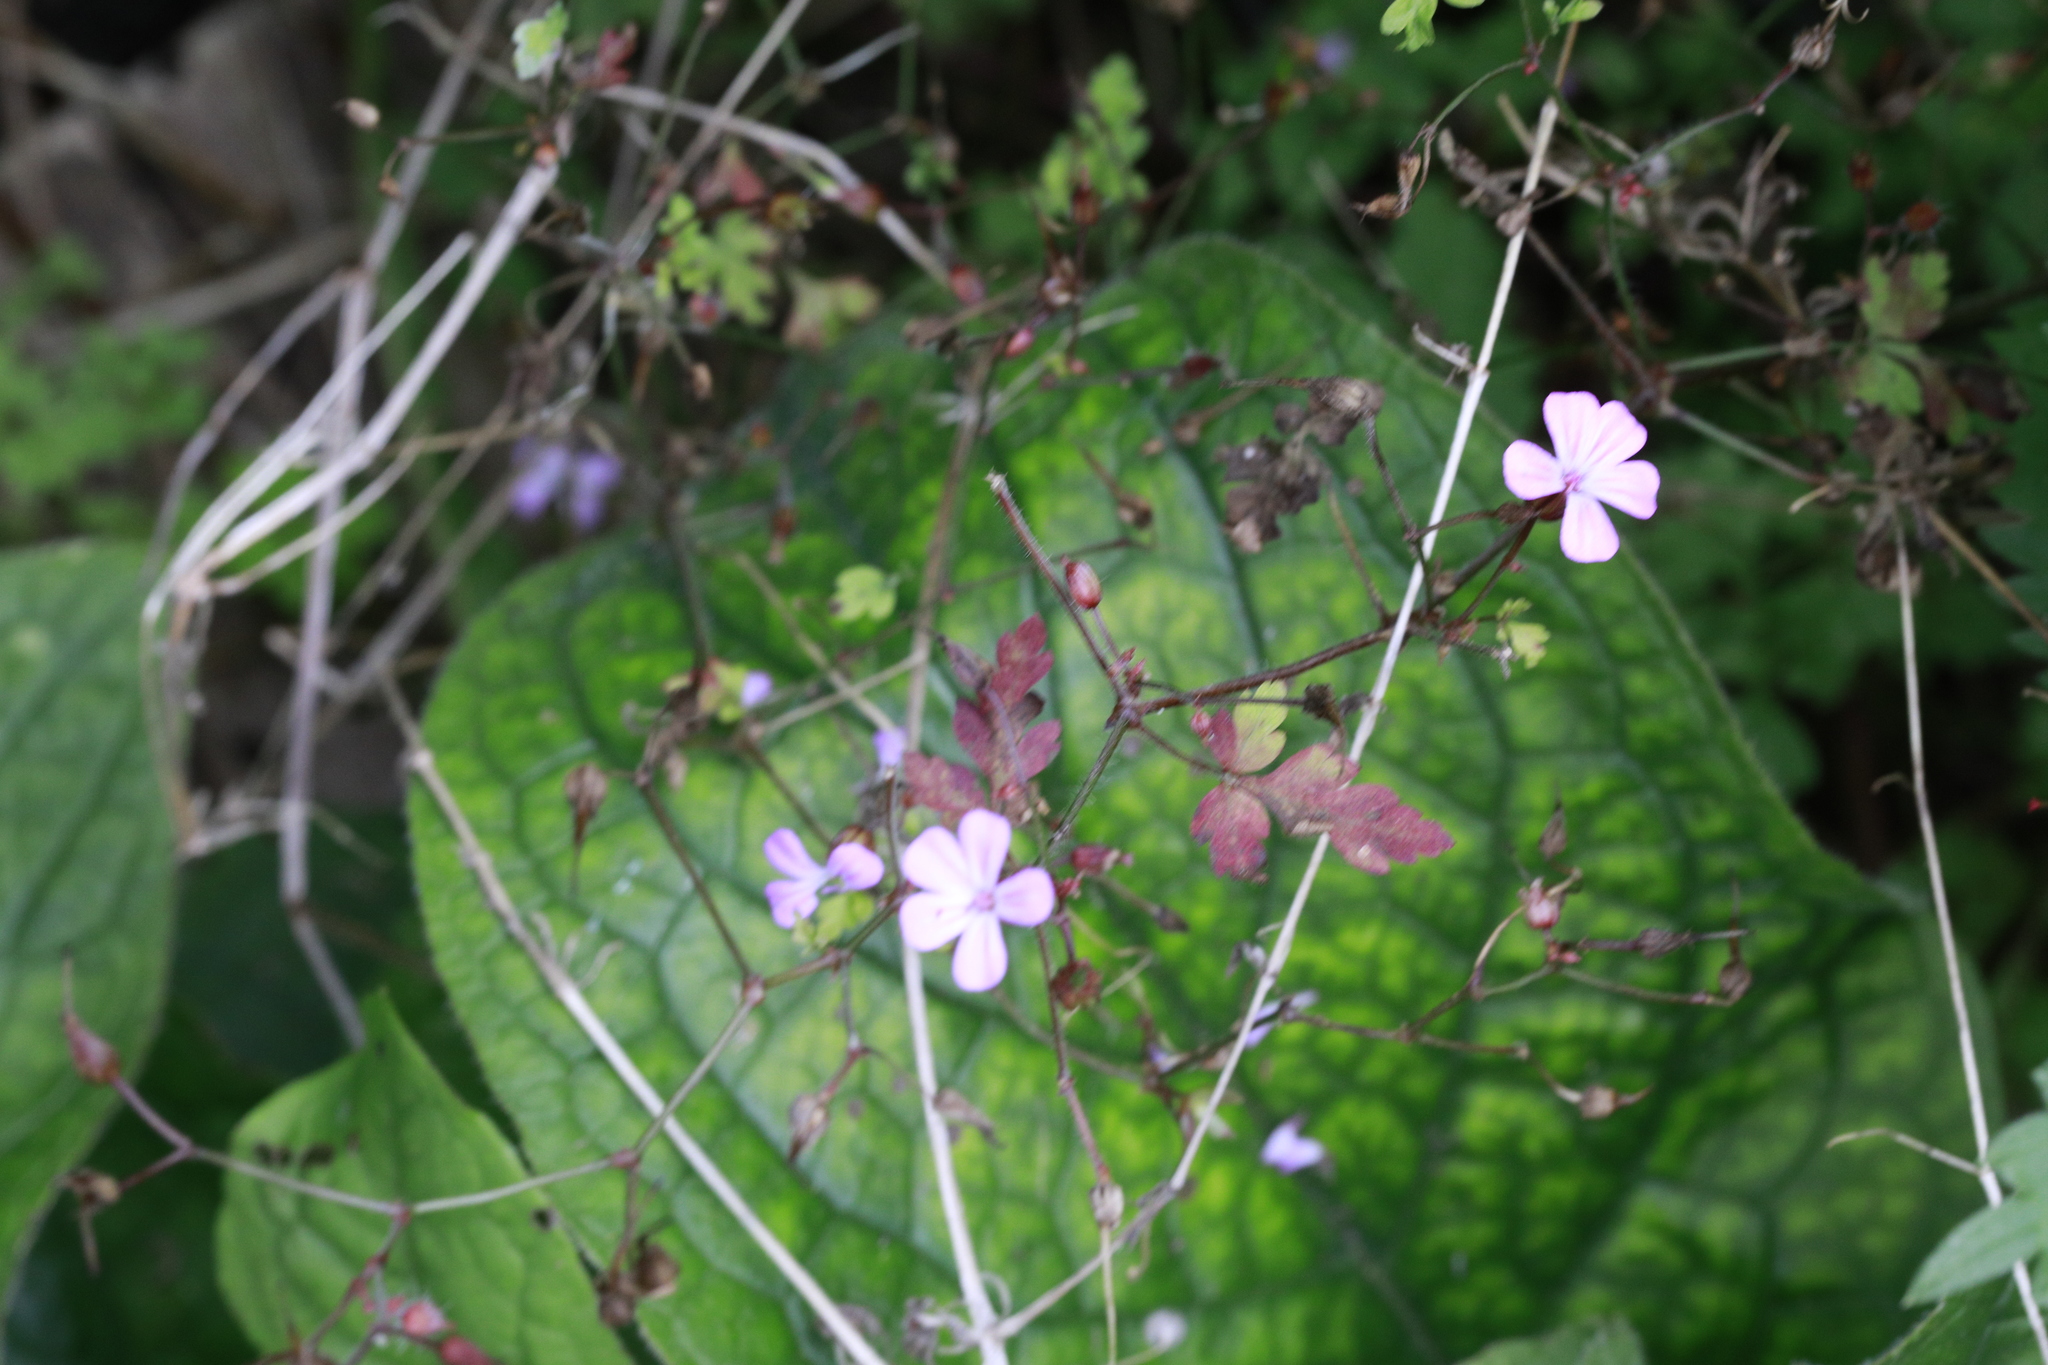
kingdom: Plantae
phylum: Tracheophyta
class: Magnoliopsida
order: Geraniales
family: Geraniaceae
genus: Geranium
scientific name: Geranium robertianum
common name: Herb-robert
